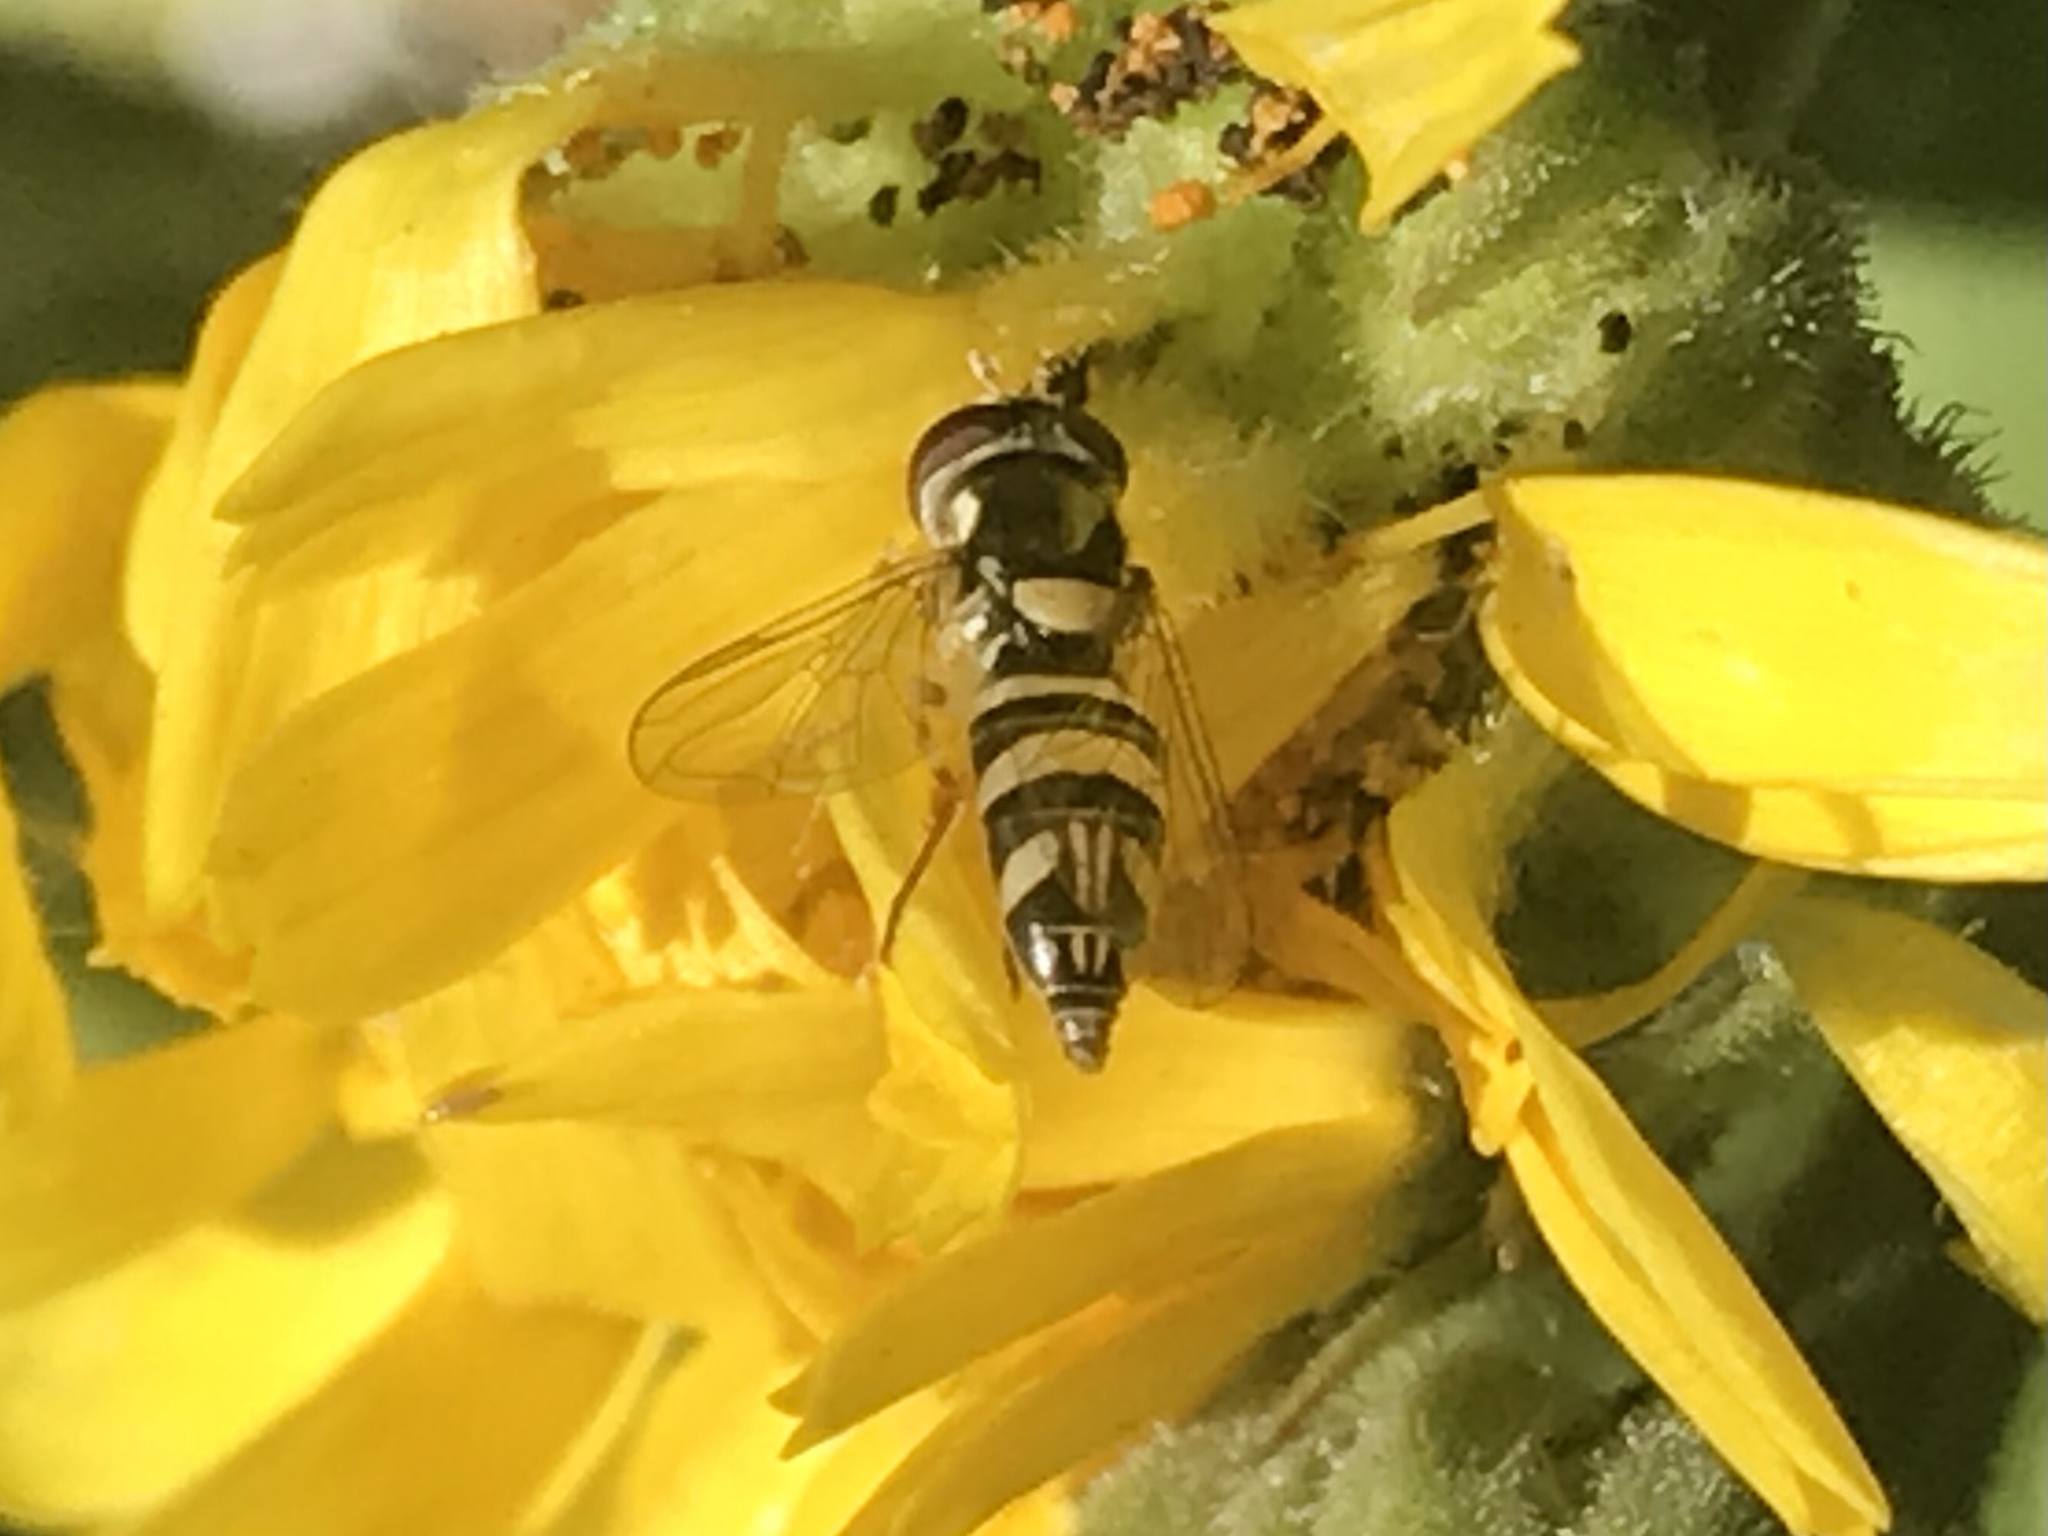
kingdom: Animalia
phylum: Arthropoda
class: Insecta
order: Diptera
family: Syrphidae
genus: Allograpta
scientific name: Allograpta exotica
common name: Syrphid fly
